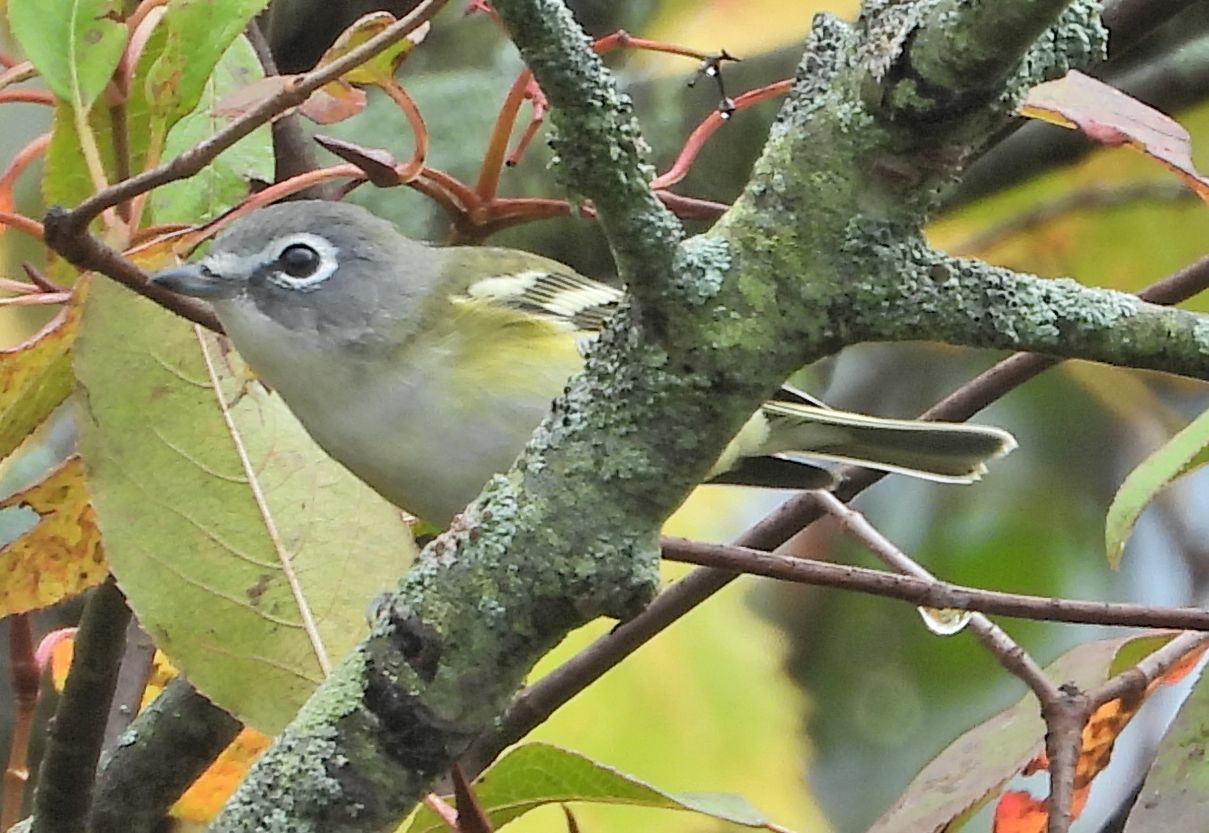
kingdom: Animalia
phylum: Chordata
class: Aves
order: Passeriformes
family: Vireonidae
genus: Vireo
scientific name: Vireo solitarius
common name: Blue-headed vireo
